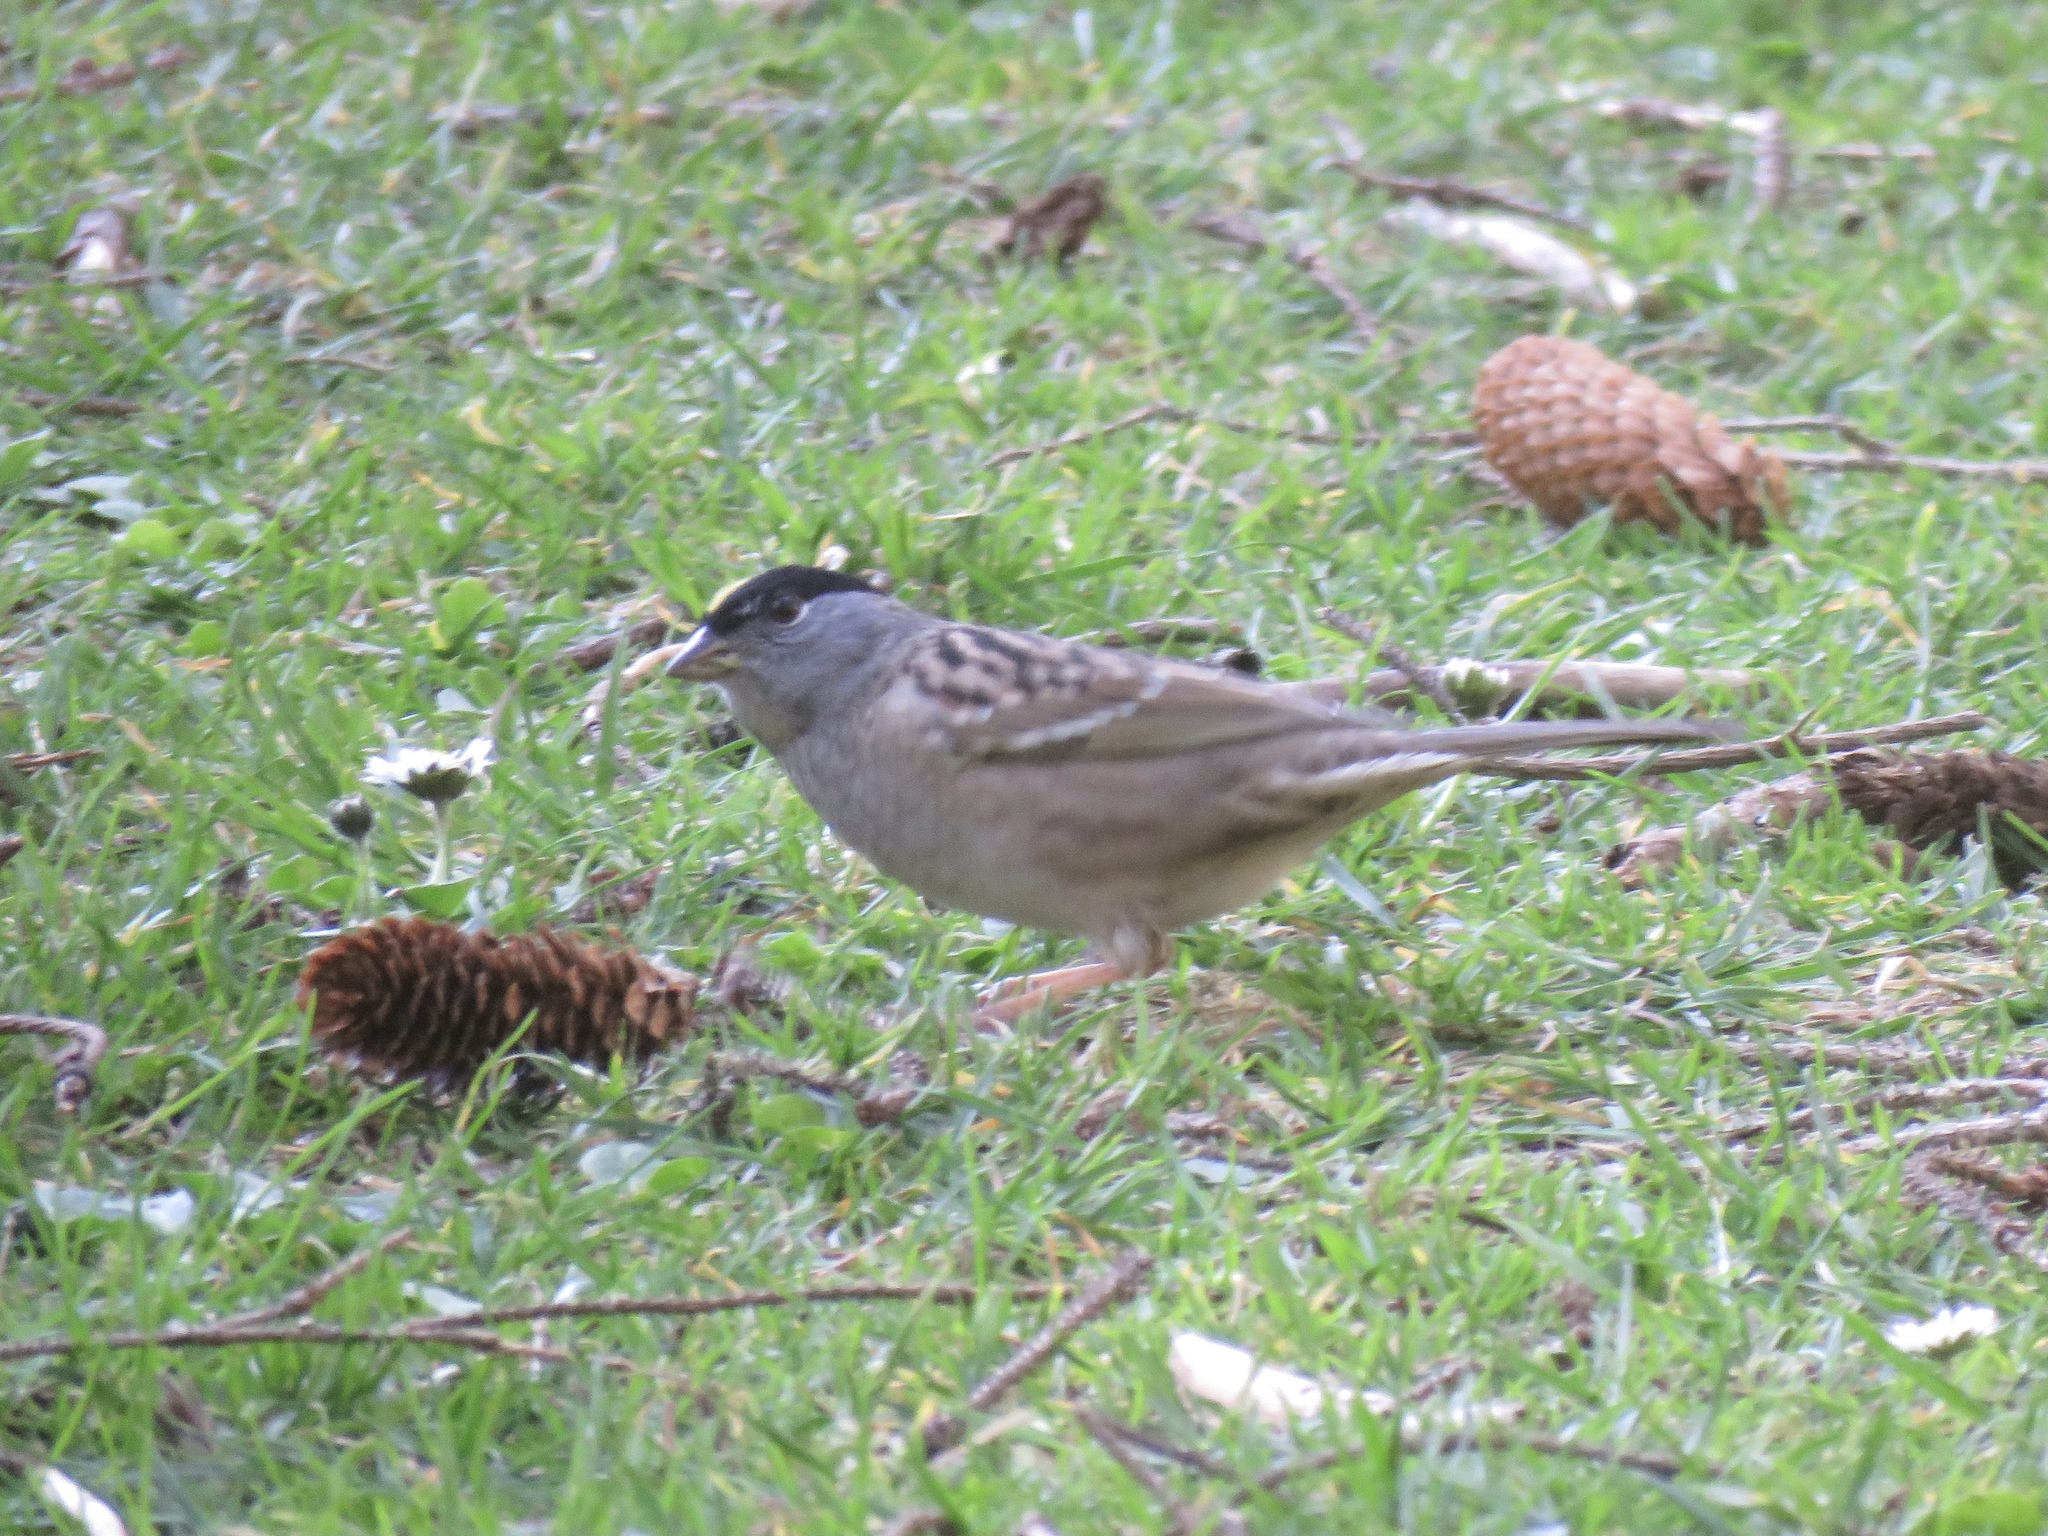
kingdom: Animalia
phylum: Chordata
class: Aves
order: Passeriformes
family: Passerellidae
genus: Zonotrichia
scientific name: Zonotrichia atricapilla
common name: Golden-crowned sparrow
